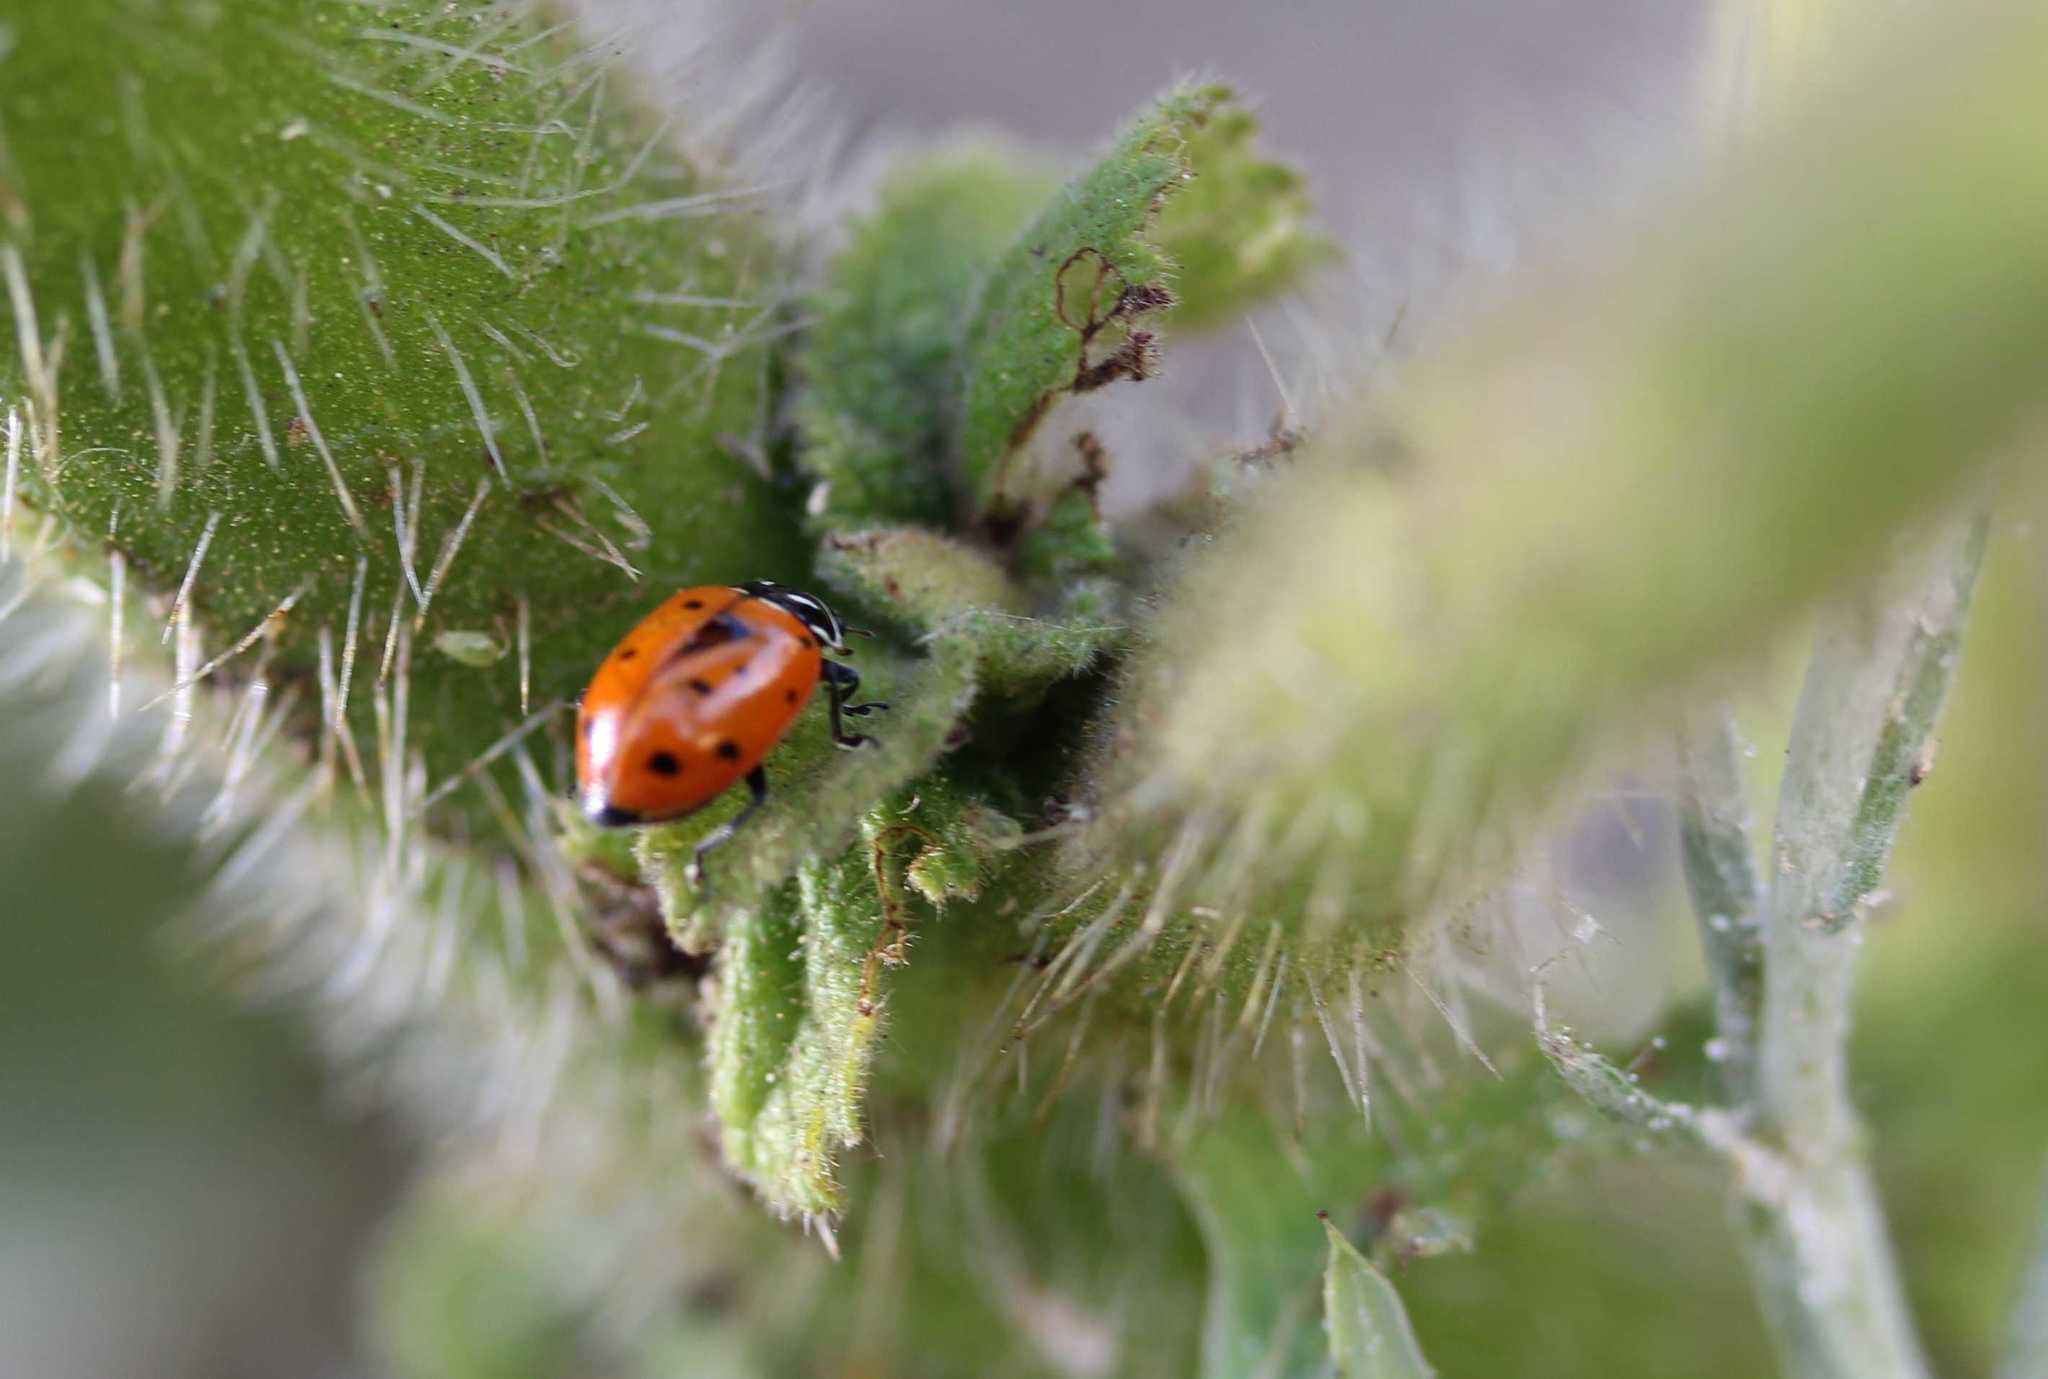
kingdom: Animalia
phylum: Arthropoda
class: Insecta
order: Coleoptera
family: Coccinellidae
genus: Hippodamia
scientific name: Hippodamia convergens
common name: Convergent lady beetle
